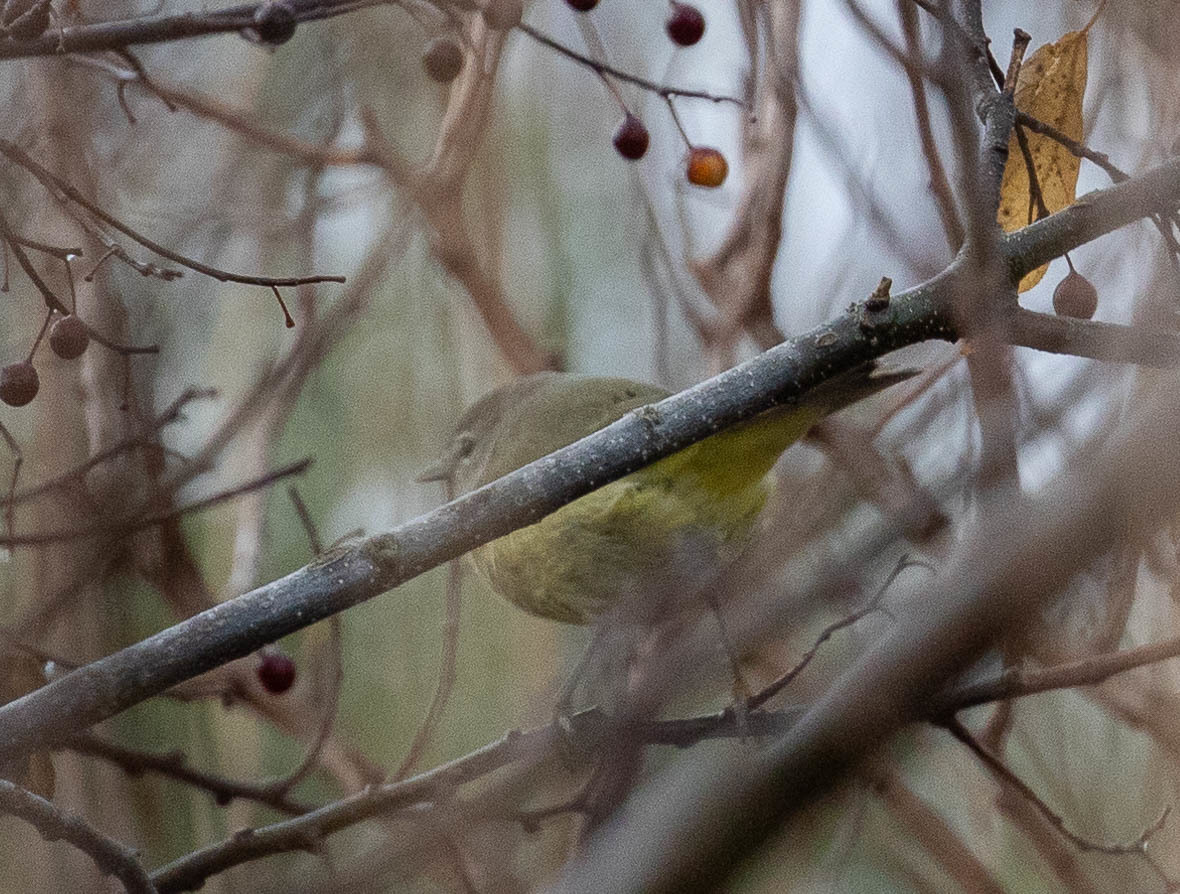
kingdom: Animalia
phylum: Chordata
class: Aves
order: Passeriformes
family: Parulidae
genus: Leiothlypis
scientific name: Leiothlypis celata
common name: Orange-crowned warbler
